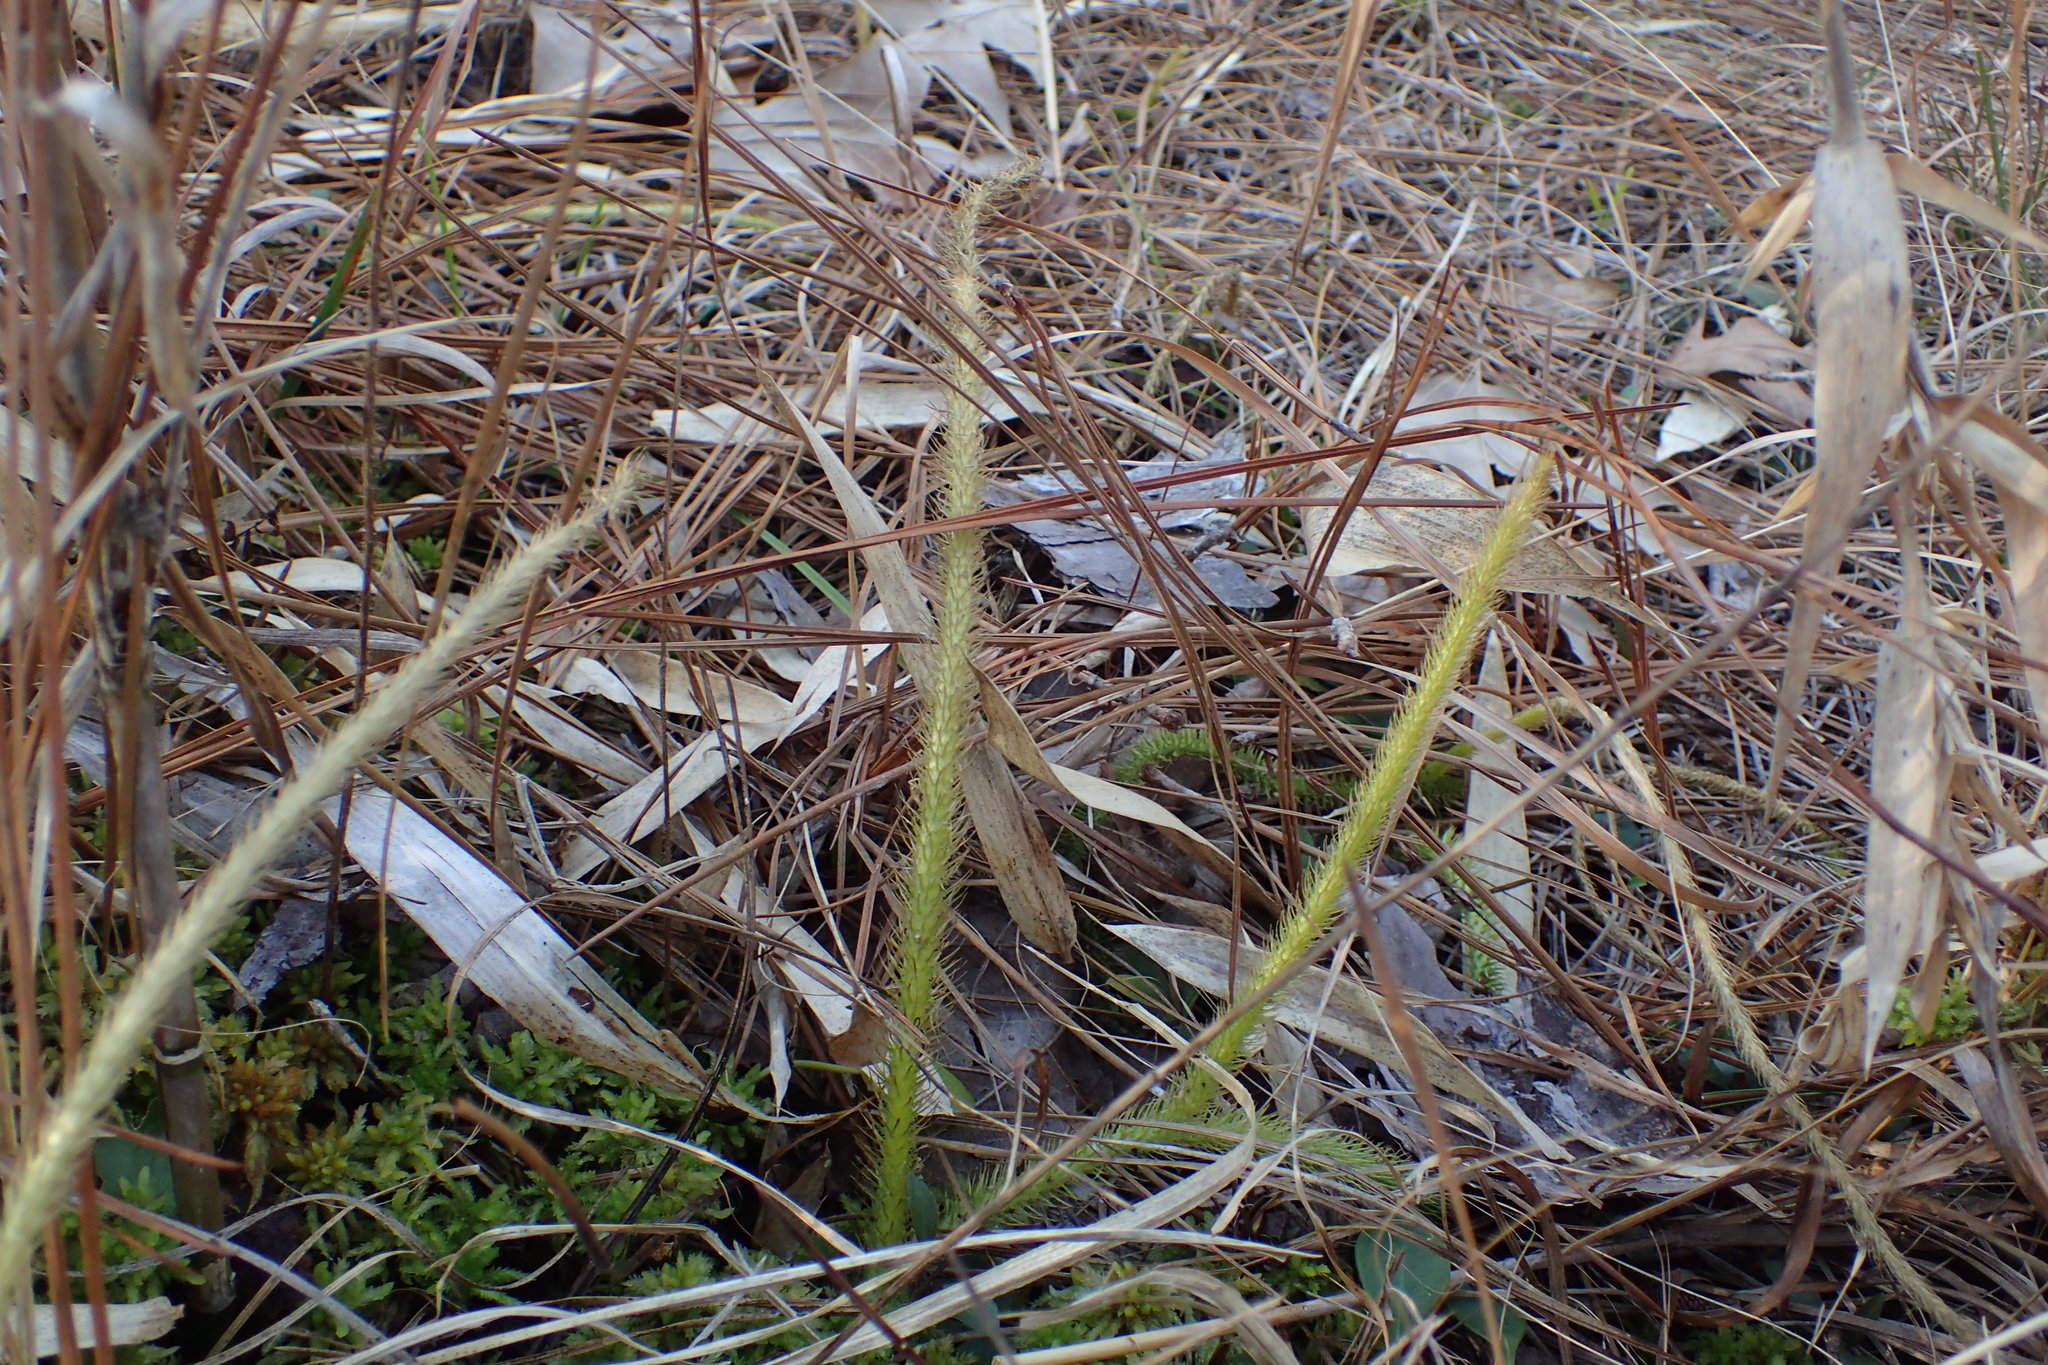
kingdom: Plantae
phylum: Tracheophyta
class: Lycopodiopsida
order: Lycopodiales
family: Lycopodiaceae
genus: Lycopodiella
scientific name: Lycopodiella alopecuroides
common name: Foxtail clubmoss
